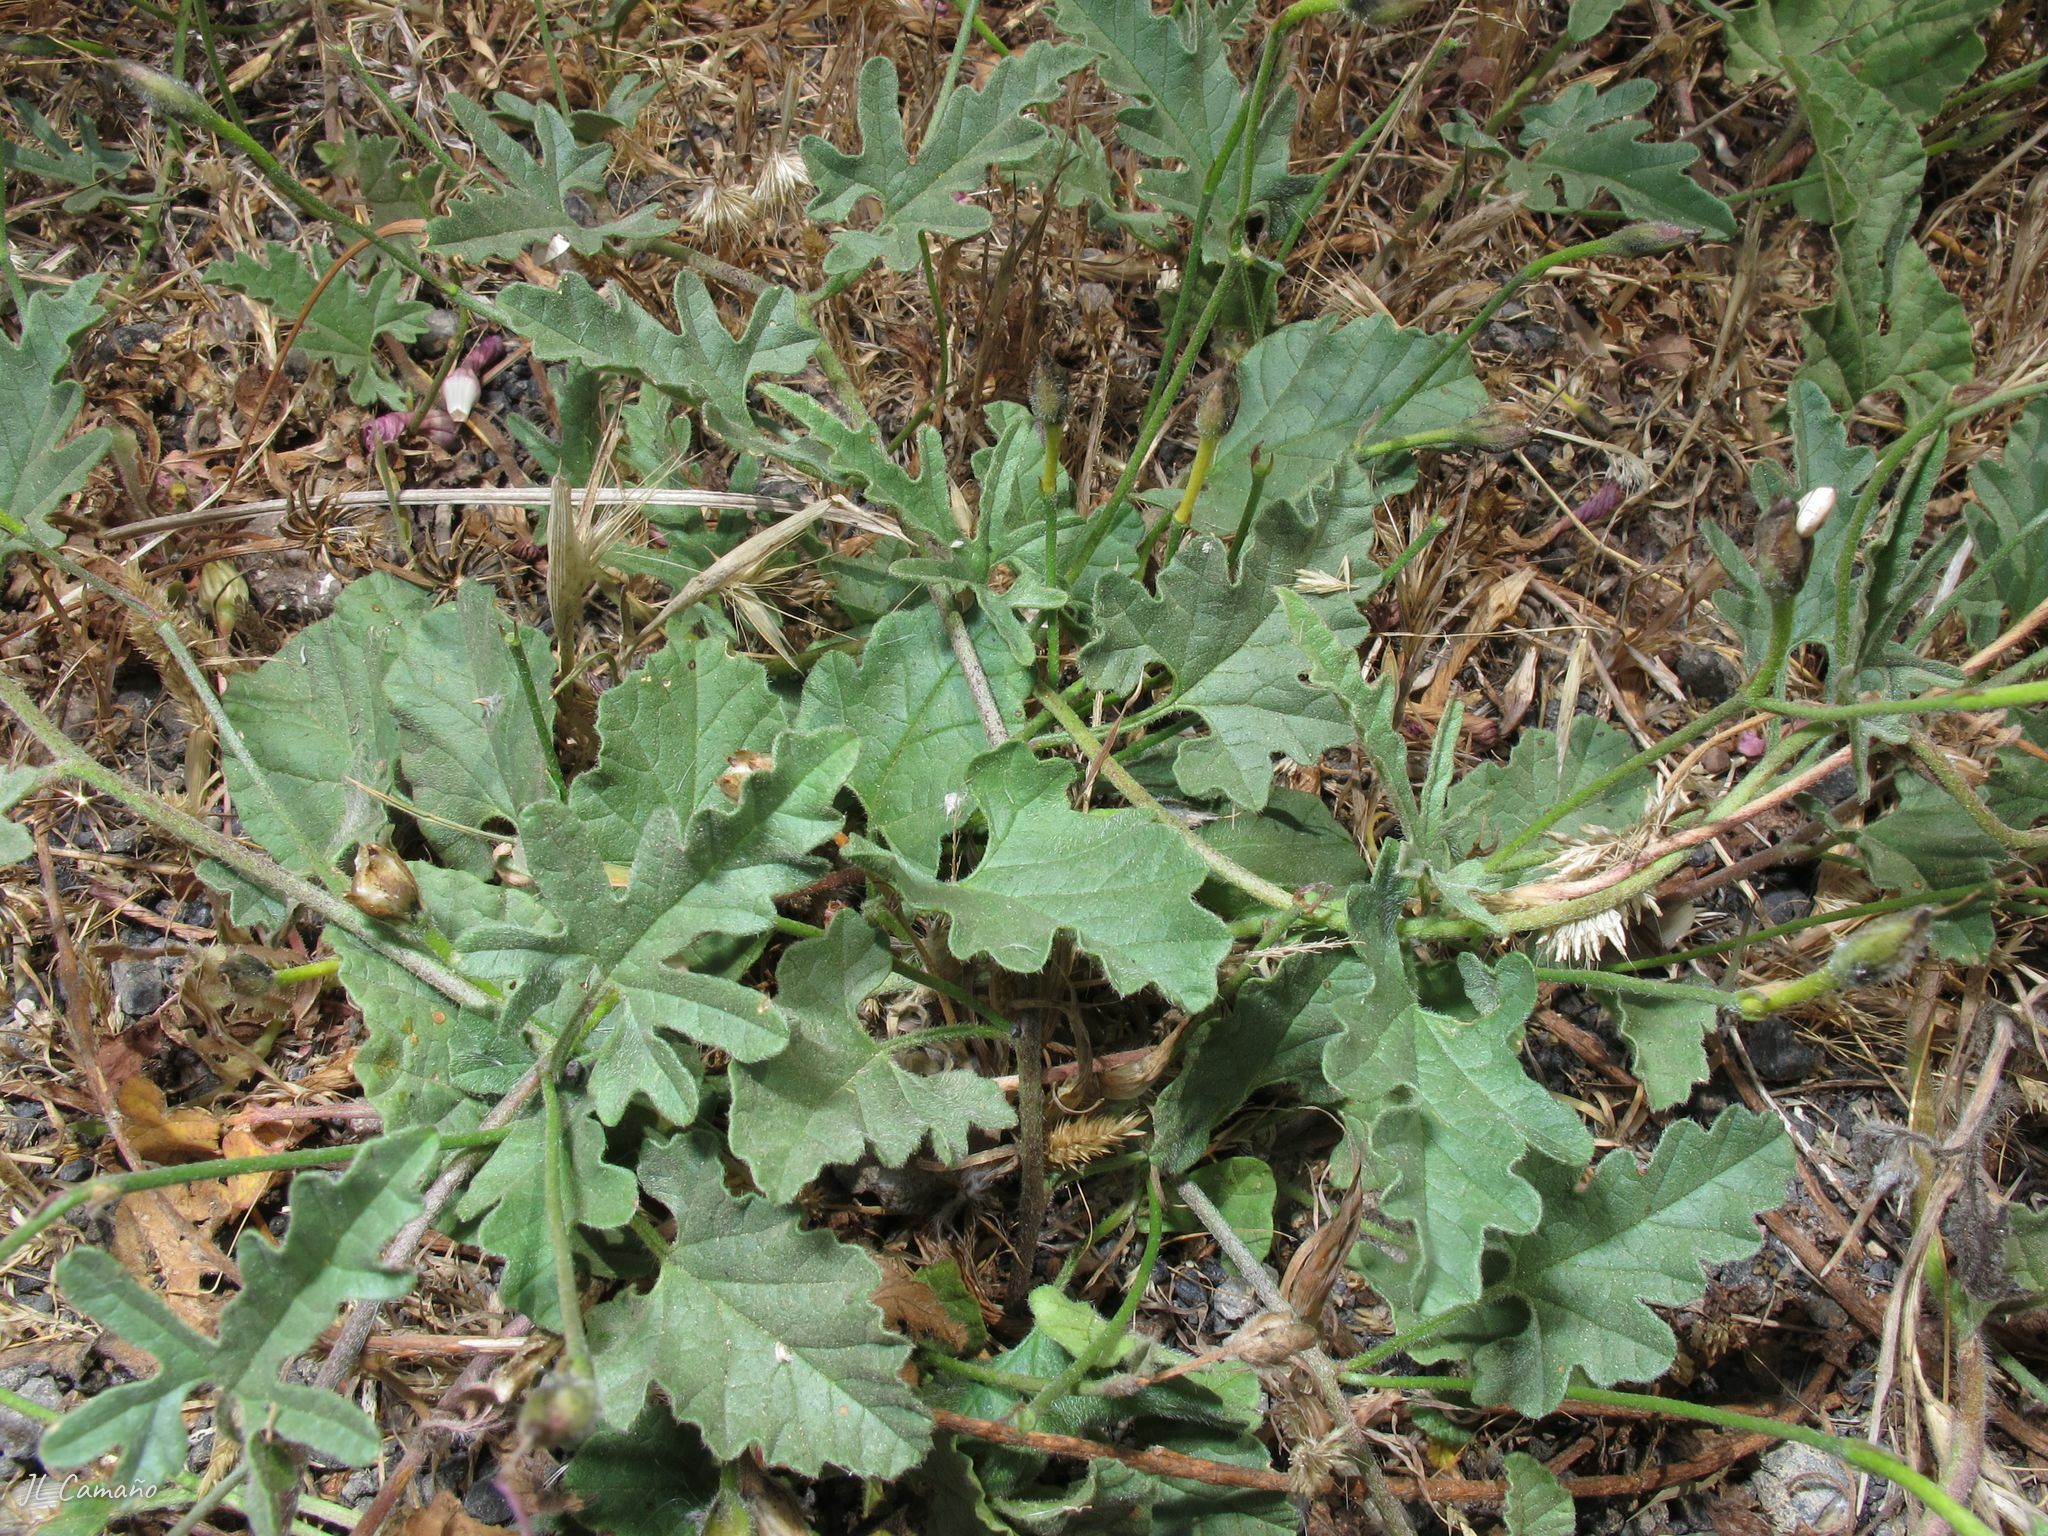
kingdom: Plantae
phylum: Tracheophyta
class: Magnoliopsida
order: Solanales
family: Convolvulaceae
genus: Convolvulus
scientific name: Convolvulus althaeoides
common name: Mallow bindweed
